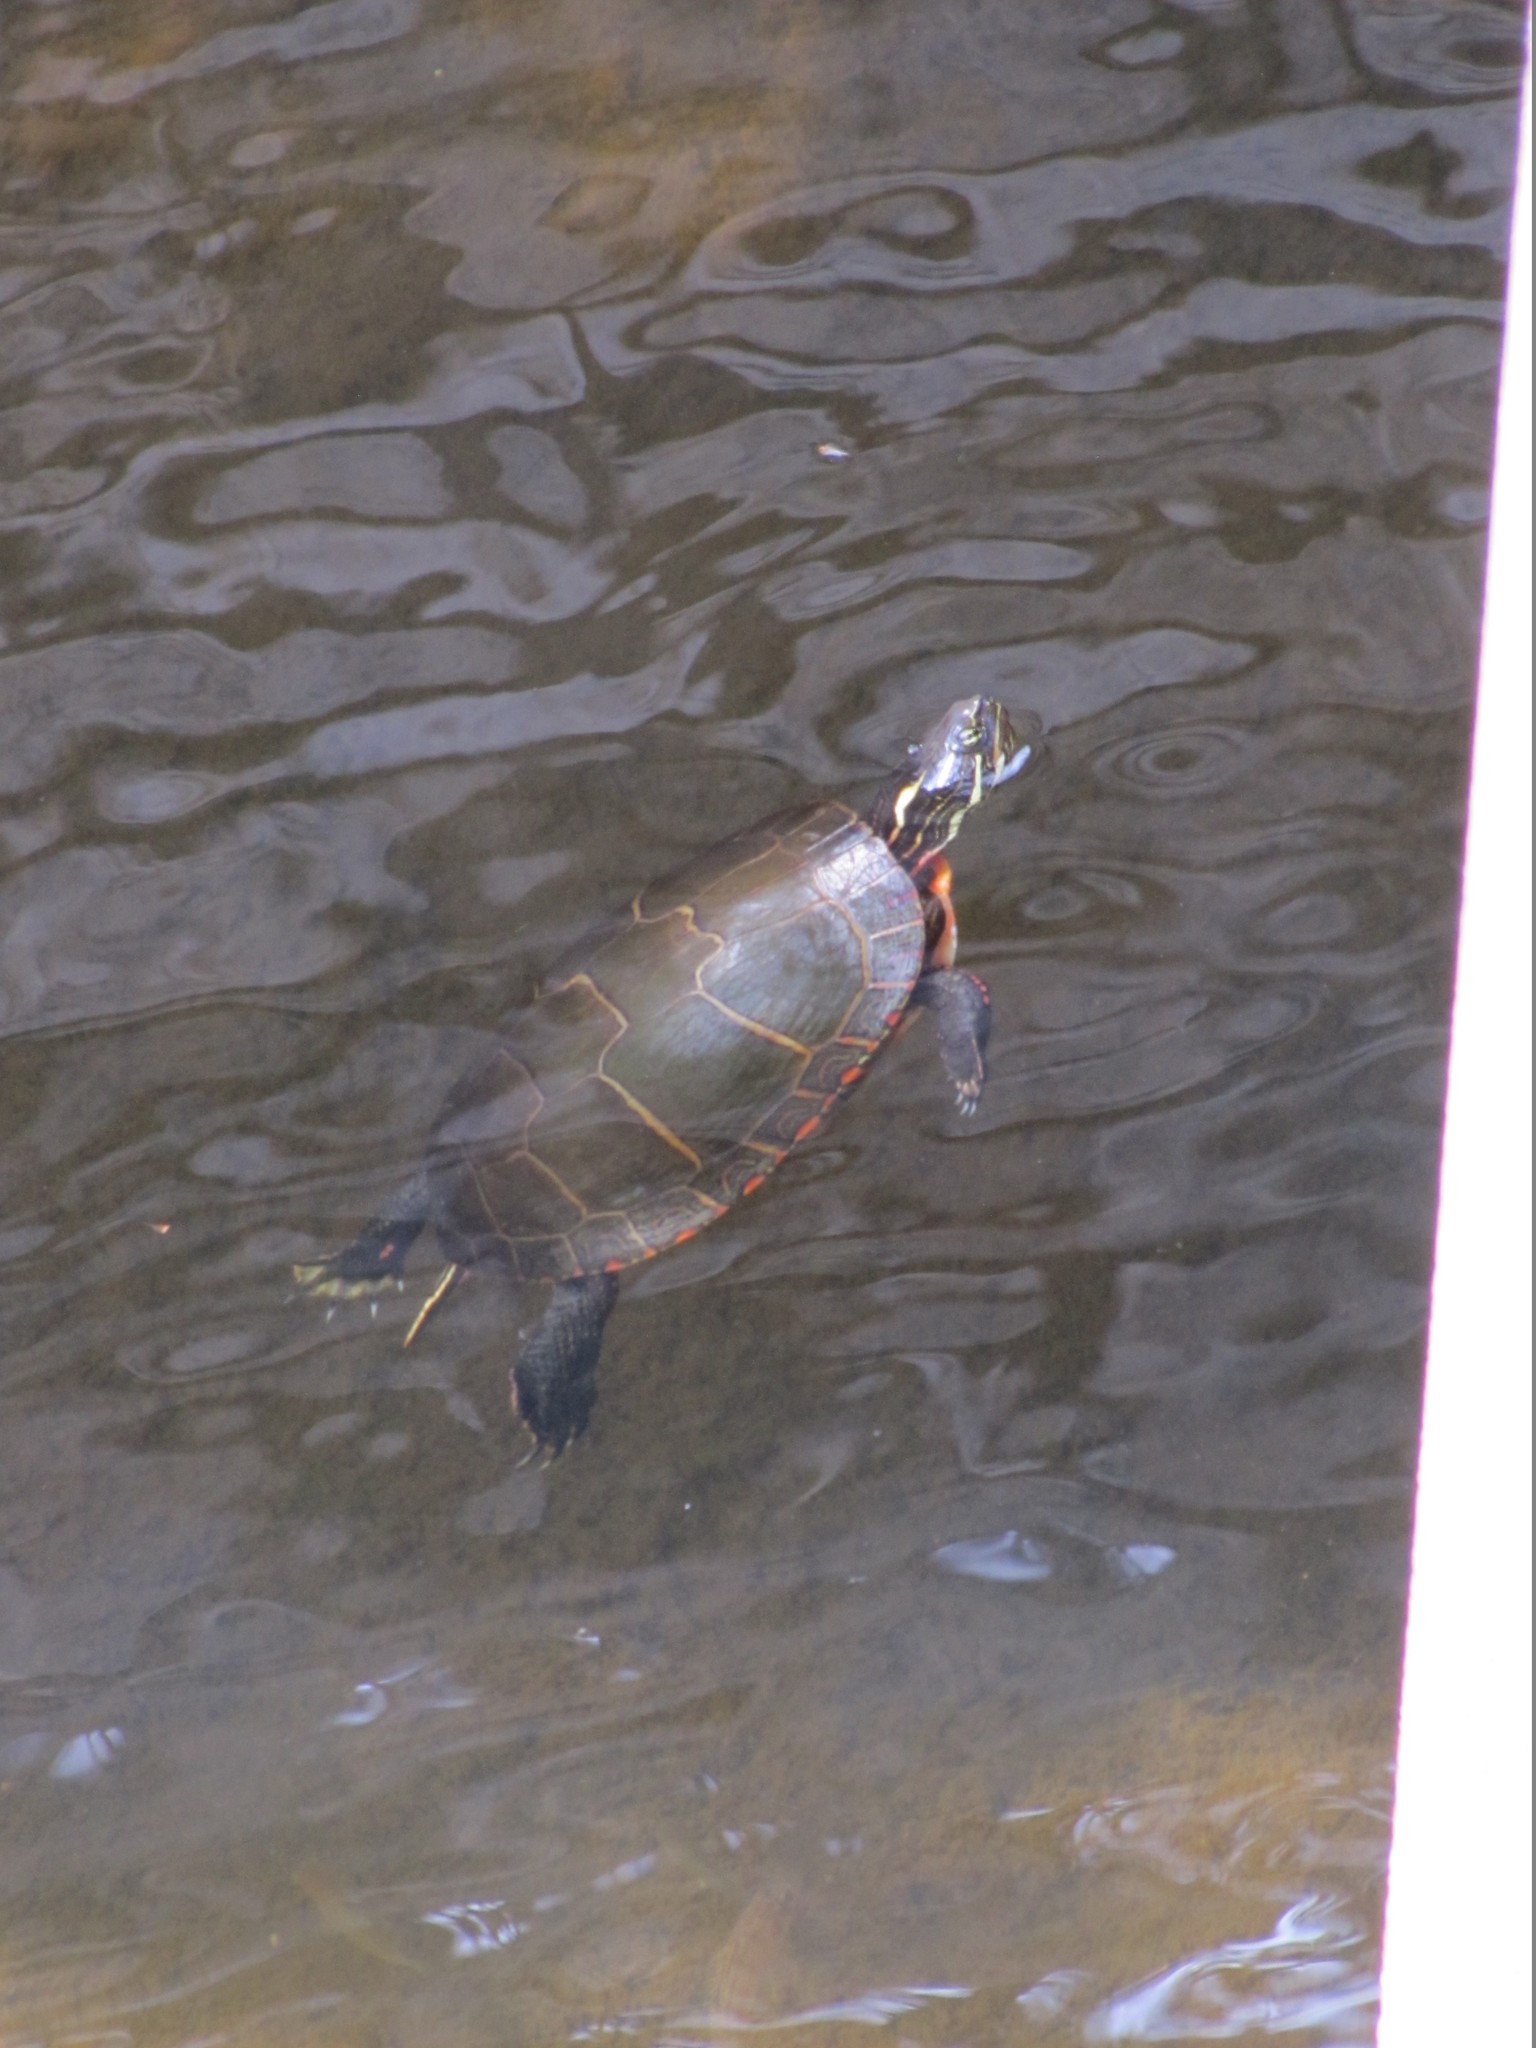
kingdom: Animalia
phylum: Chordata
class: Testudines
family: Emydidae
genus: Chrysemys
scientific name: Chrysemys picta
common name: Painted turtle
